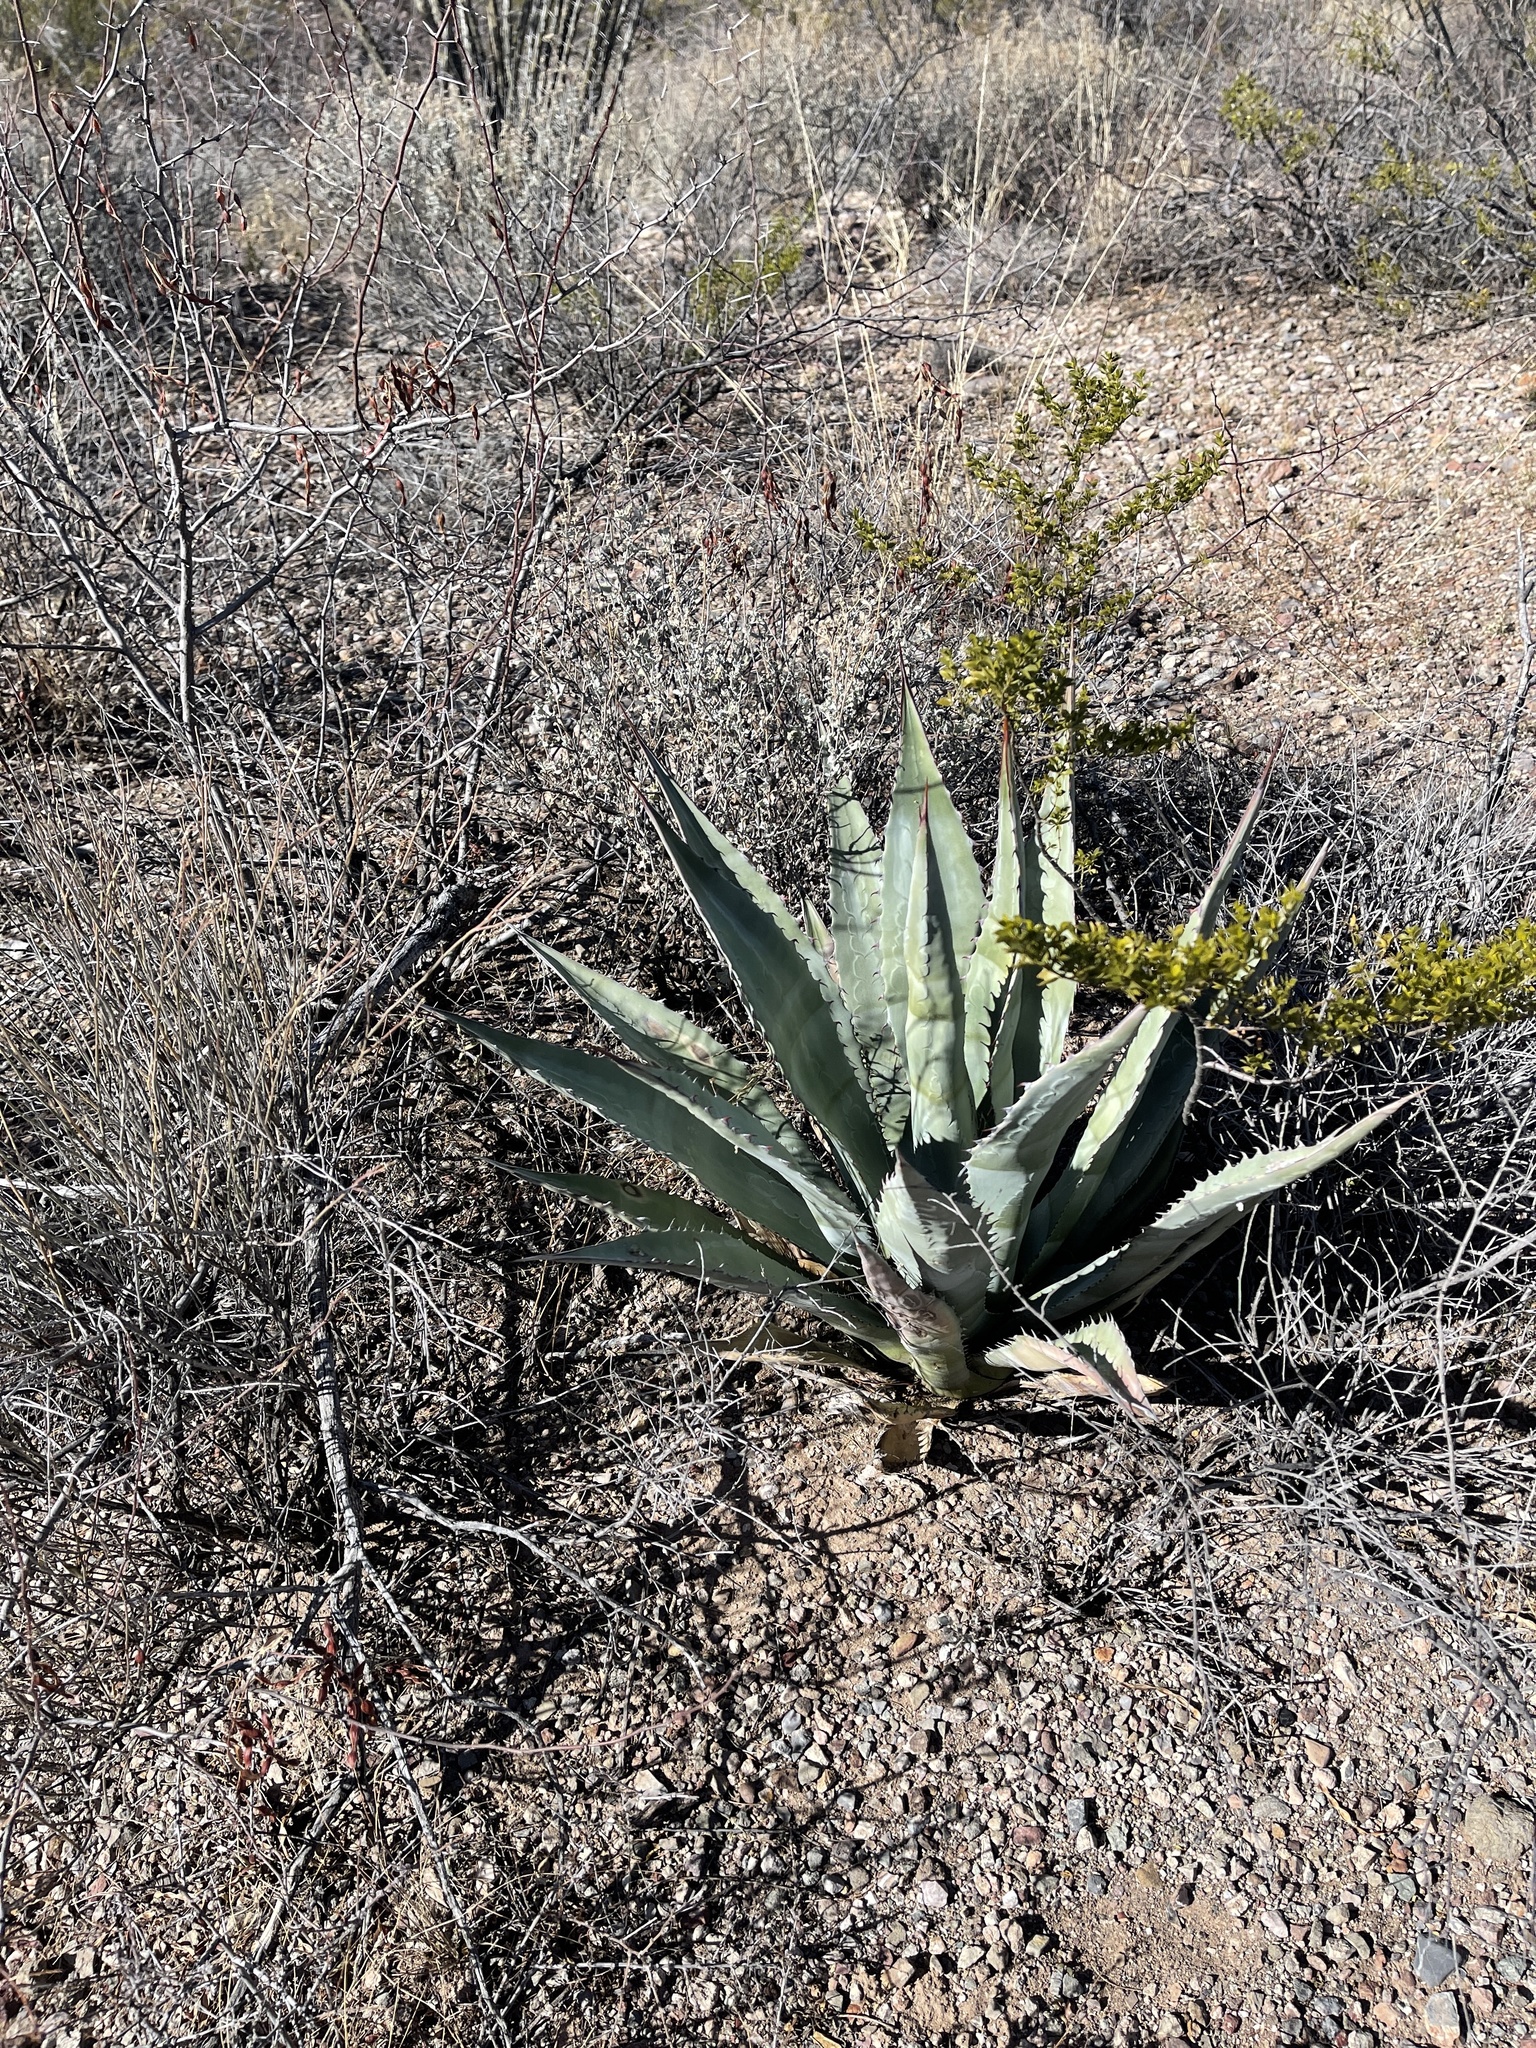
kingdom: Plantae
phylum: Tracheophyta
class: Liliopsida
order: Asparagales
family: Asparagaceae
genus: Agave
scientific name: Agave palmeri
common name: Palmer agave
